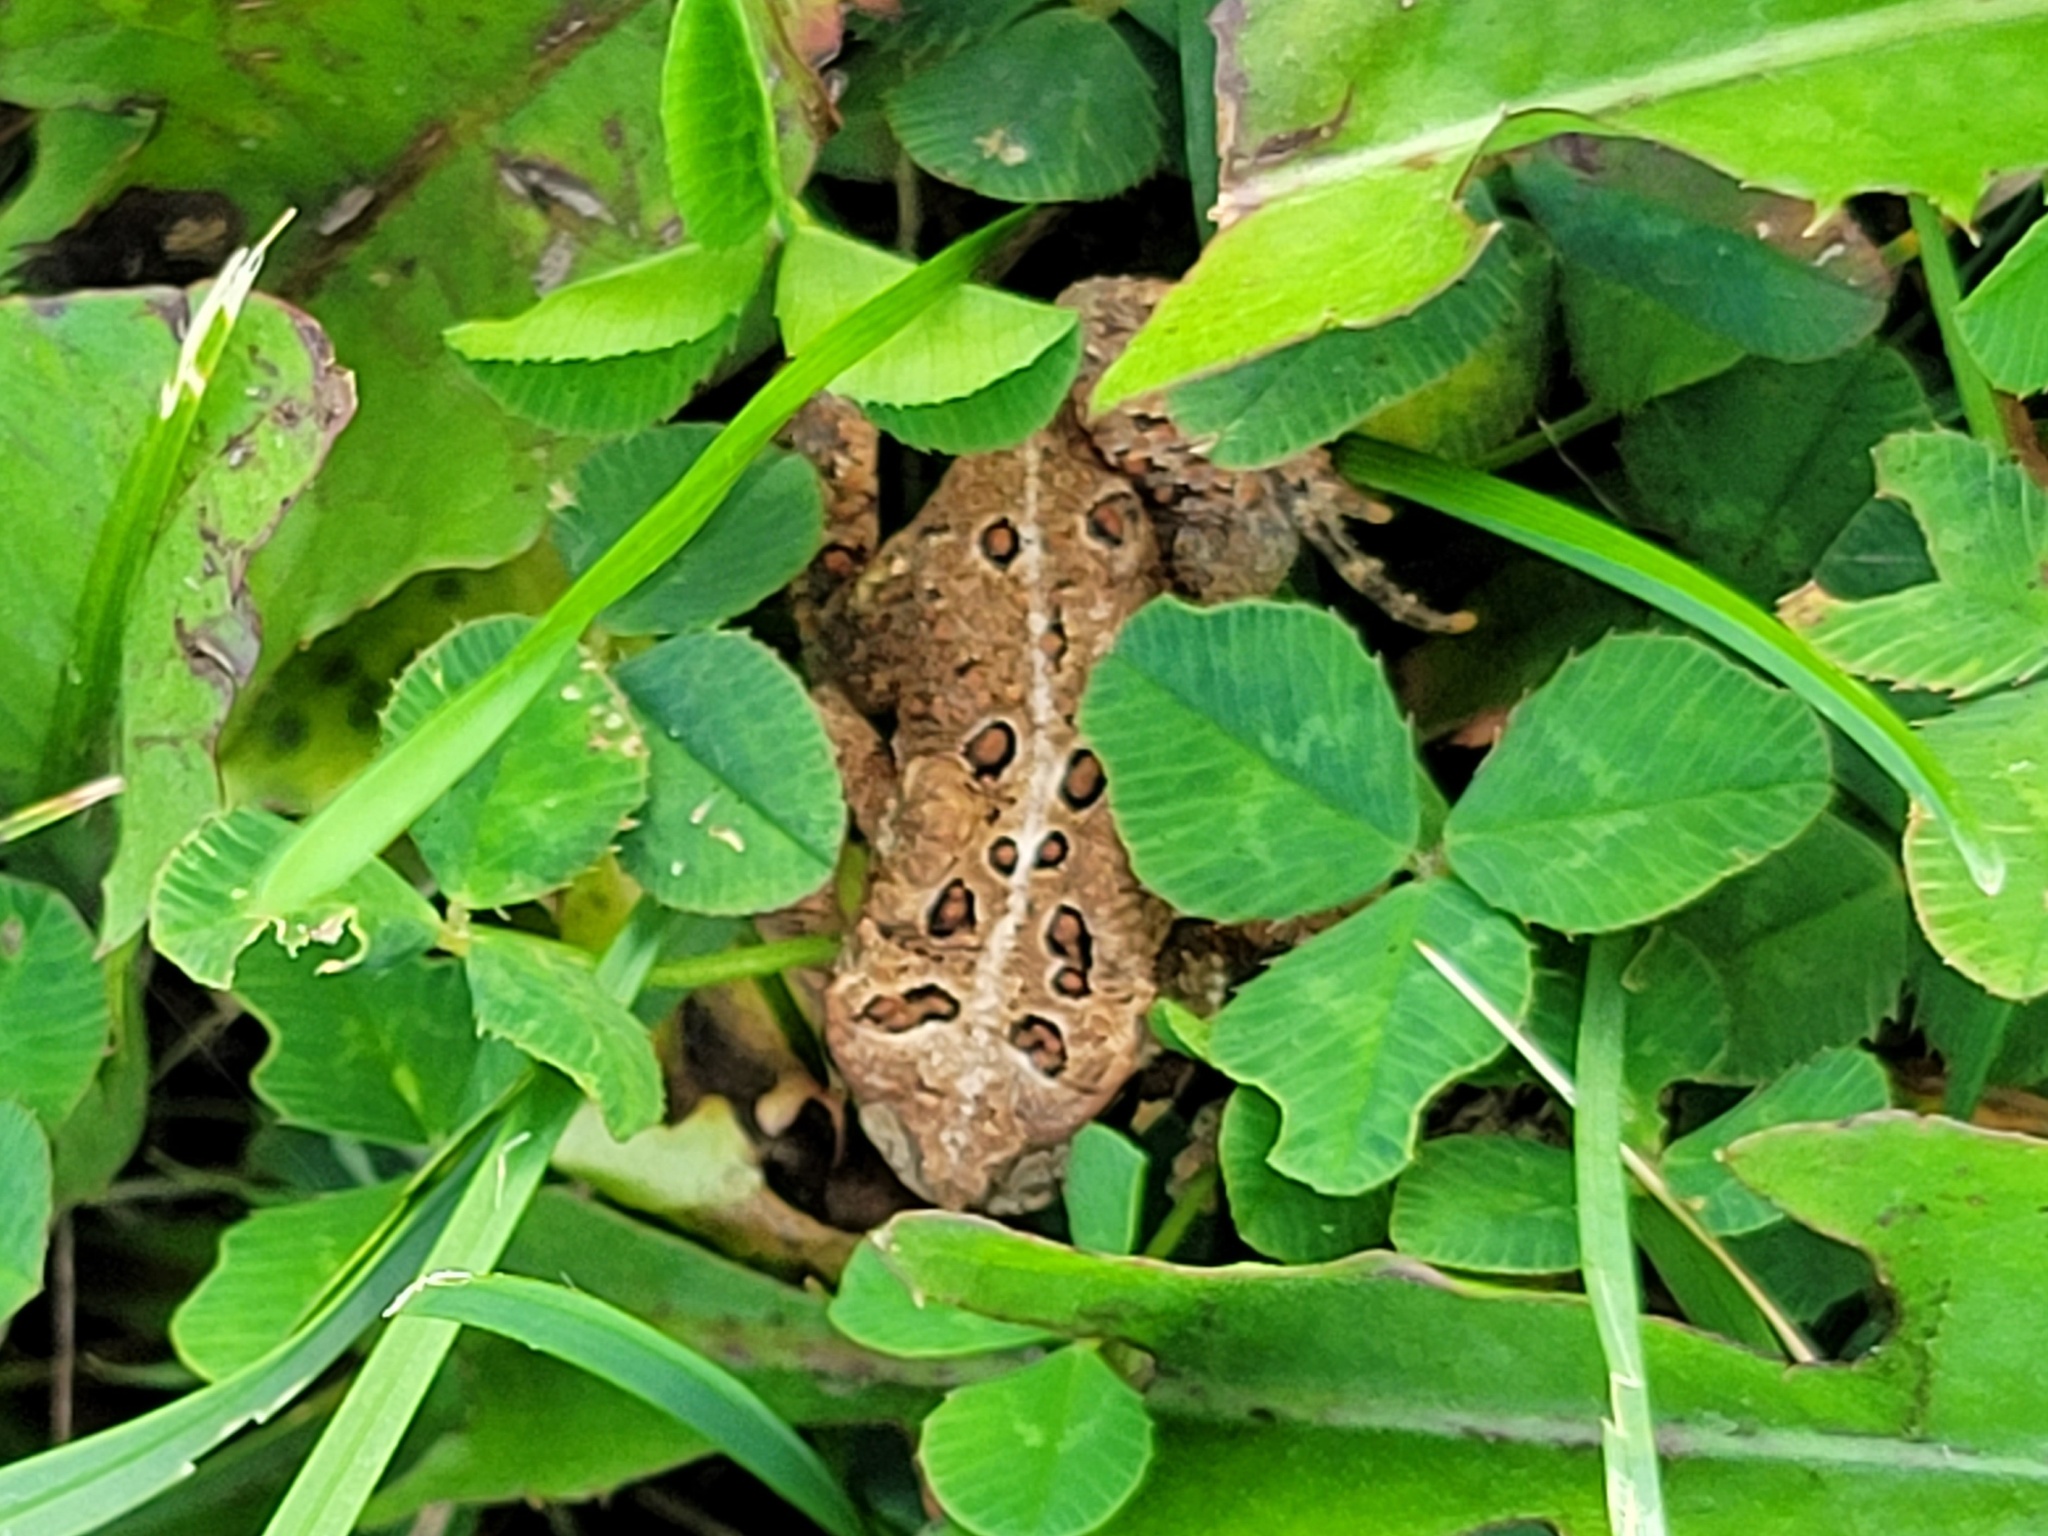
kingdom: Animalia
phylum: Chordata
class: Amphibia
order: Anura
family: Bufonidae
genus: Anaxyrus
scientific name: Anaxyrus americanus
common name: American toad
